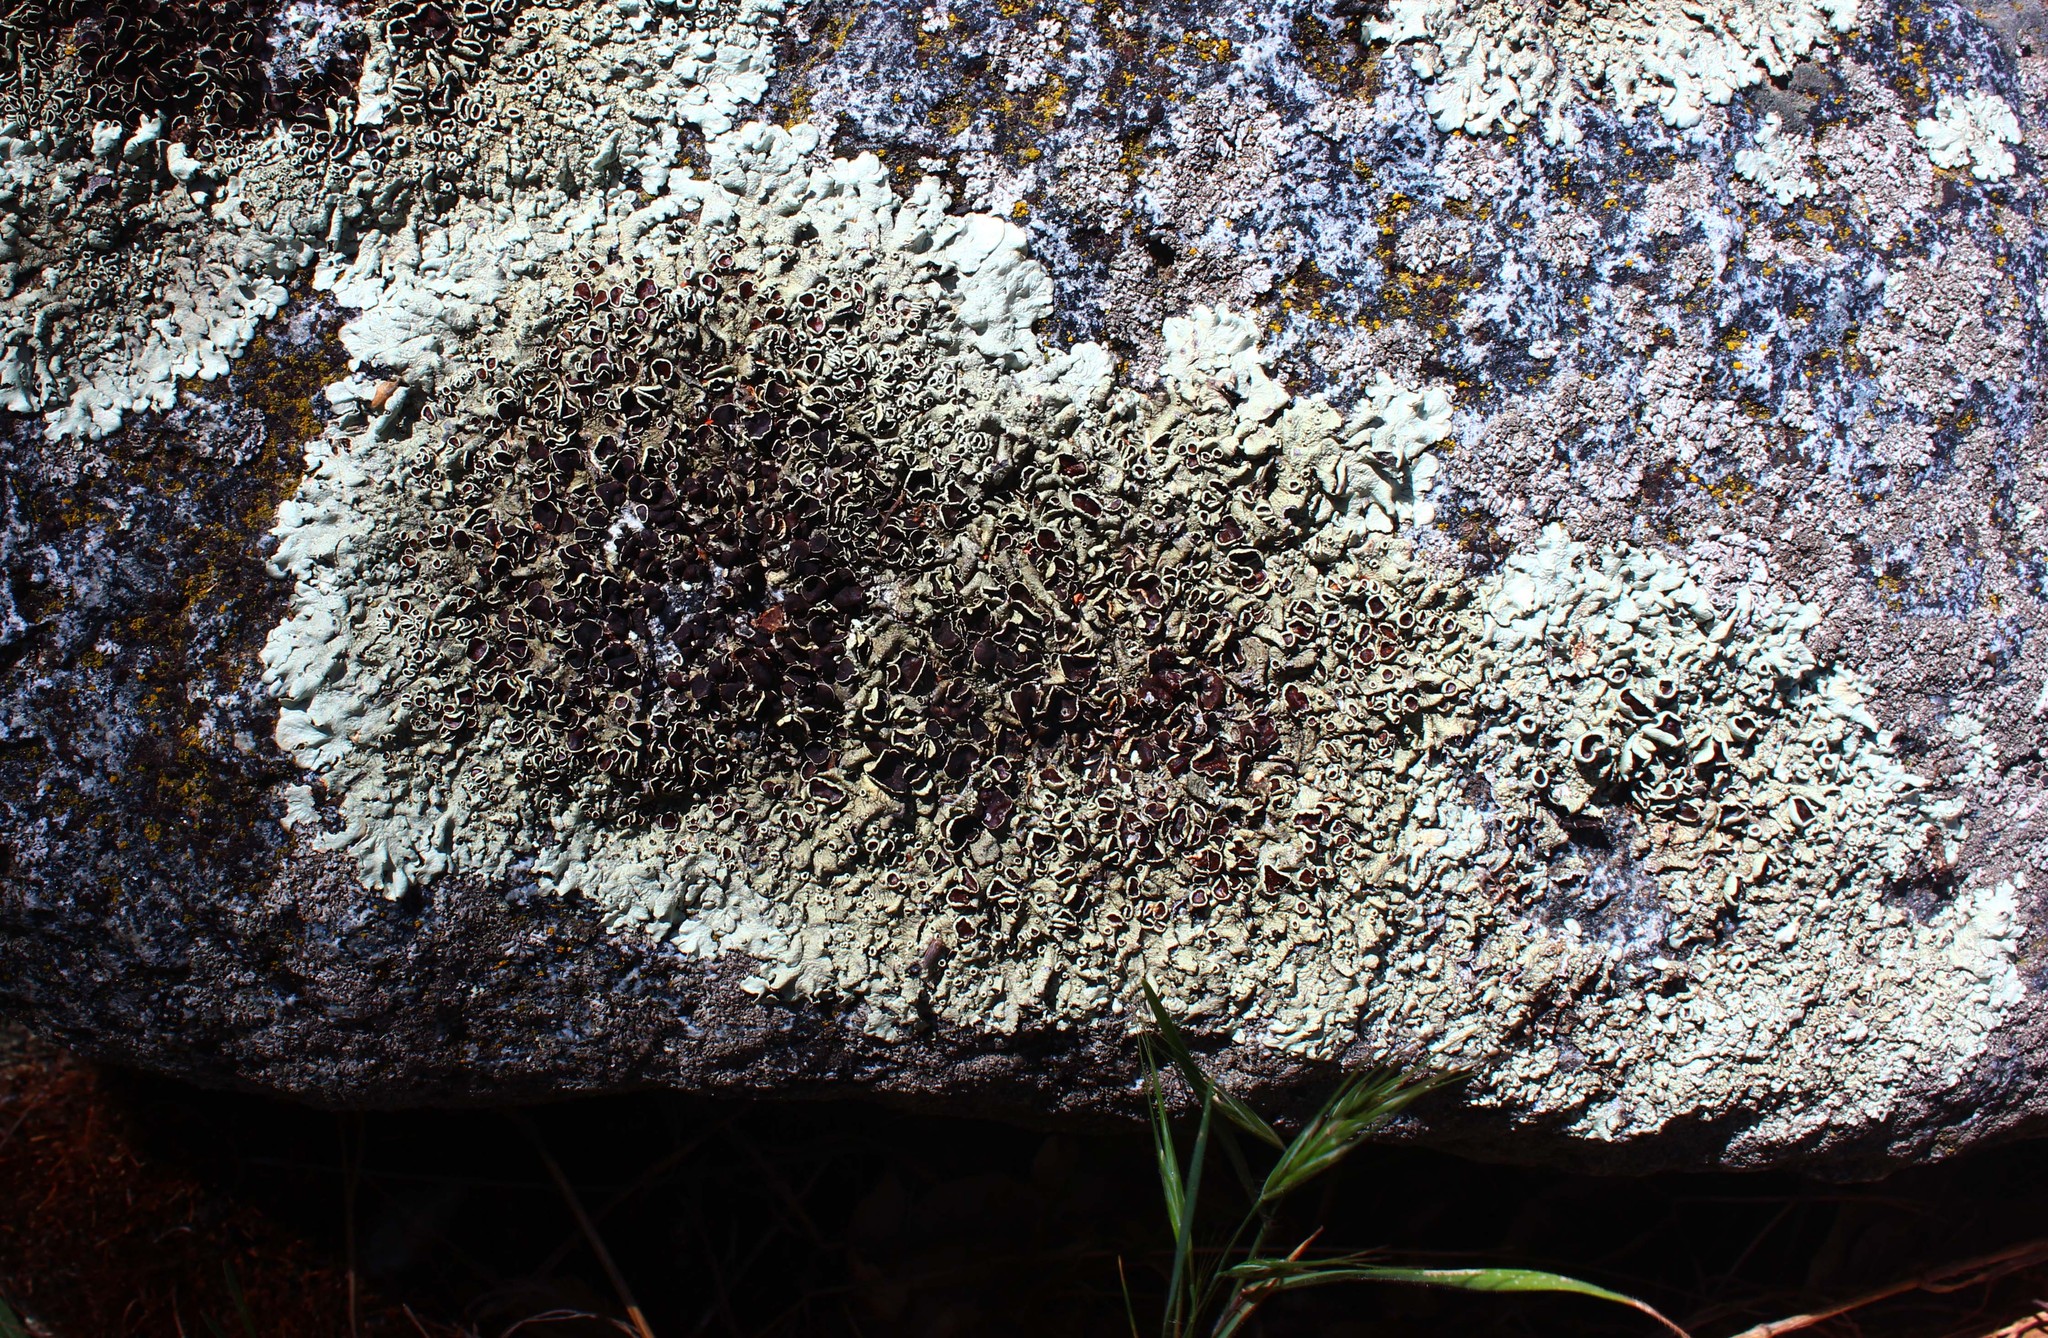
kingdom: Fungi
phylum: Ascomycota
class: Lecanoromycetes
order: Lecanorales
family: Parmeliaceae
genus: Xanthoparmelia
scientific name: Xanthoparmelia lineola
